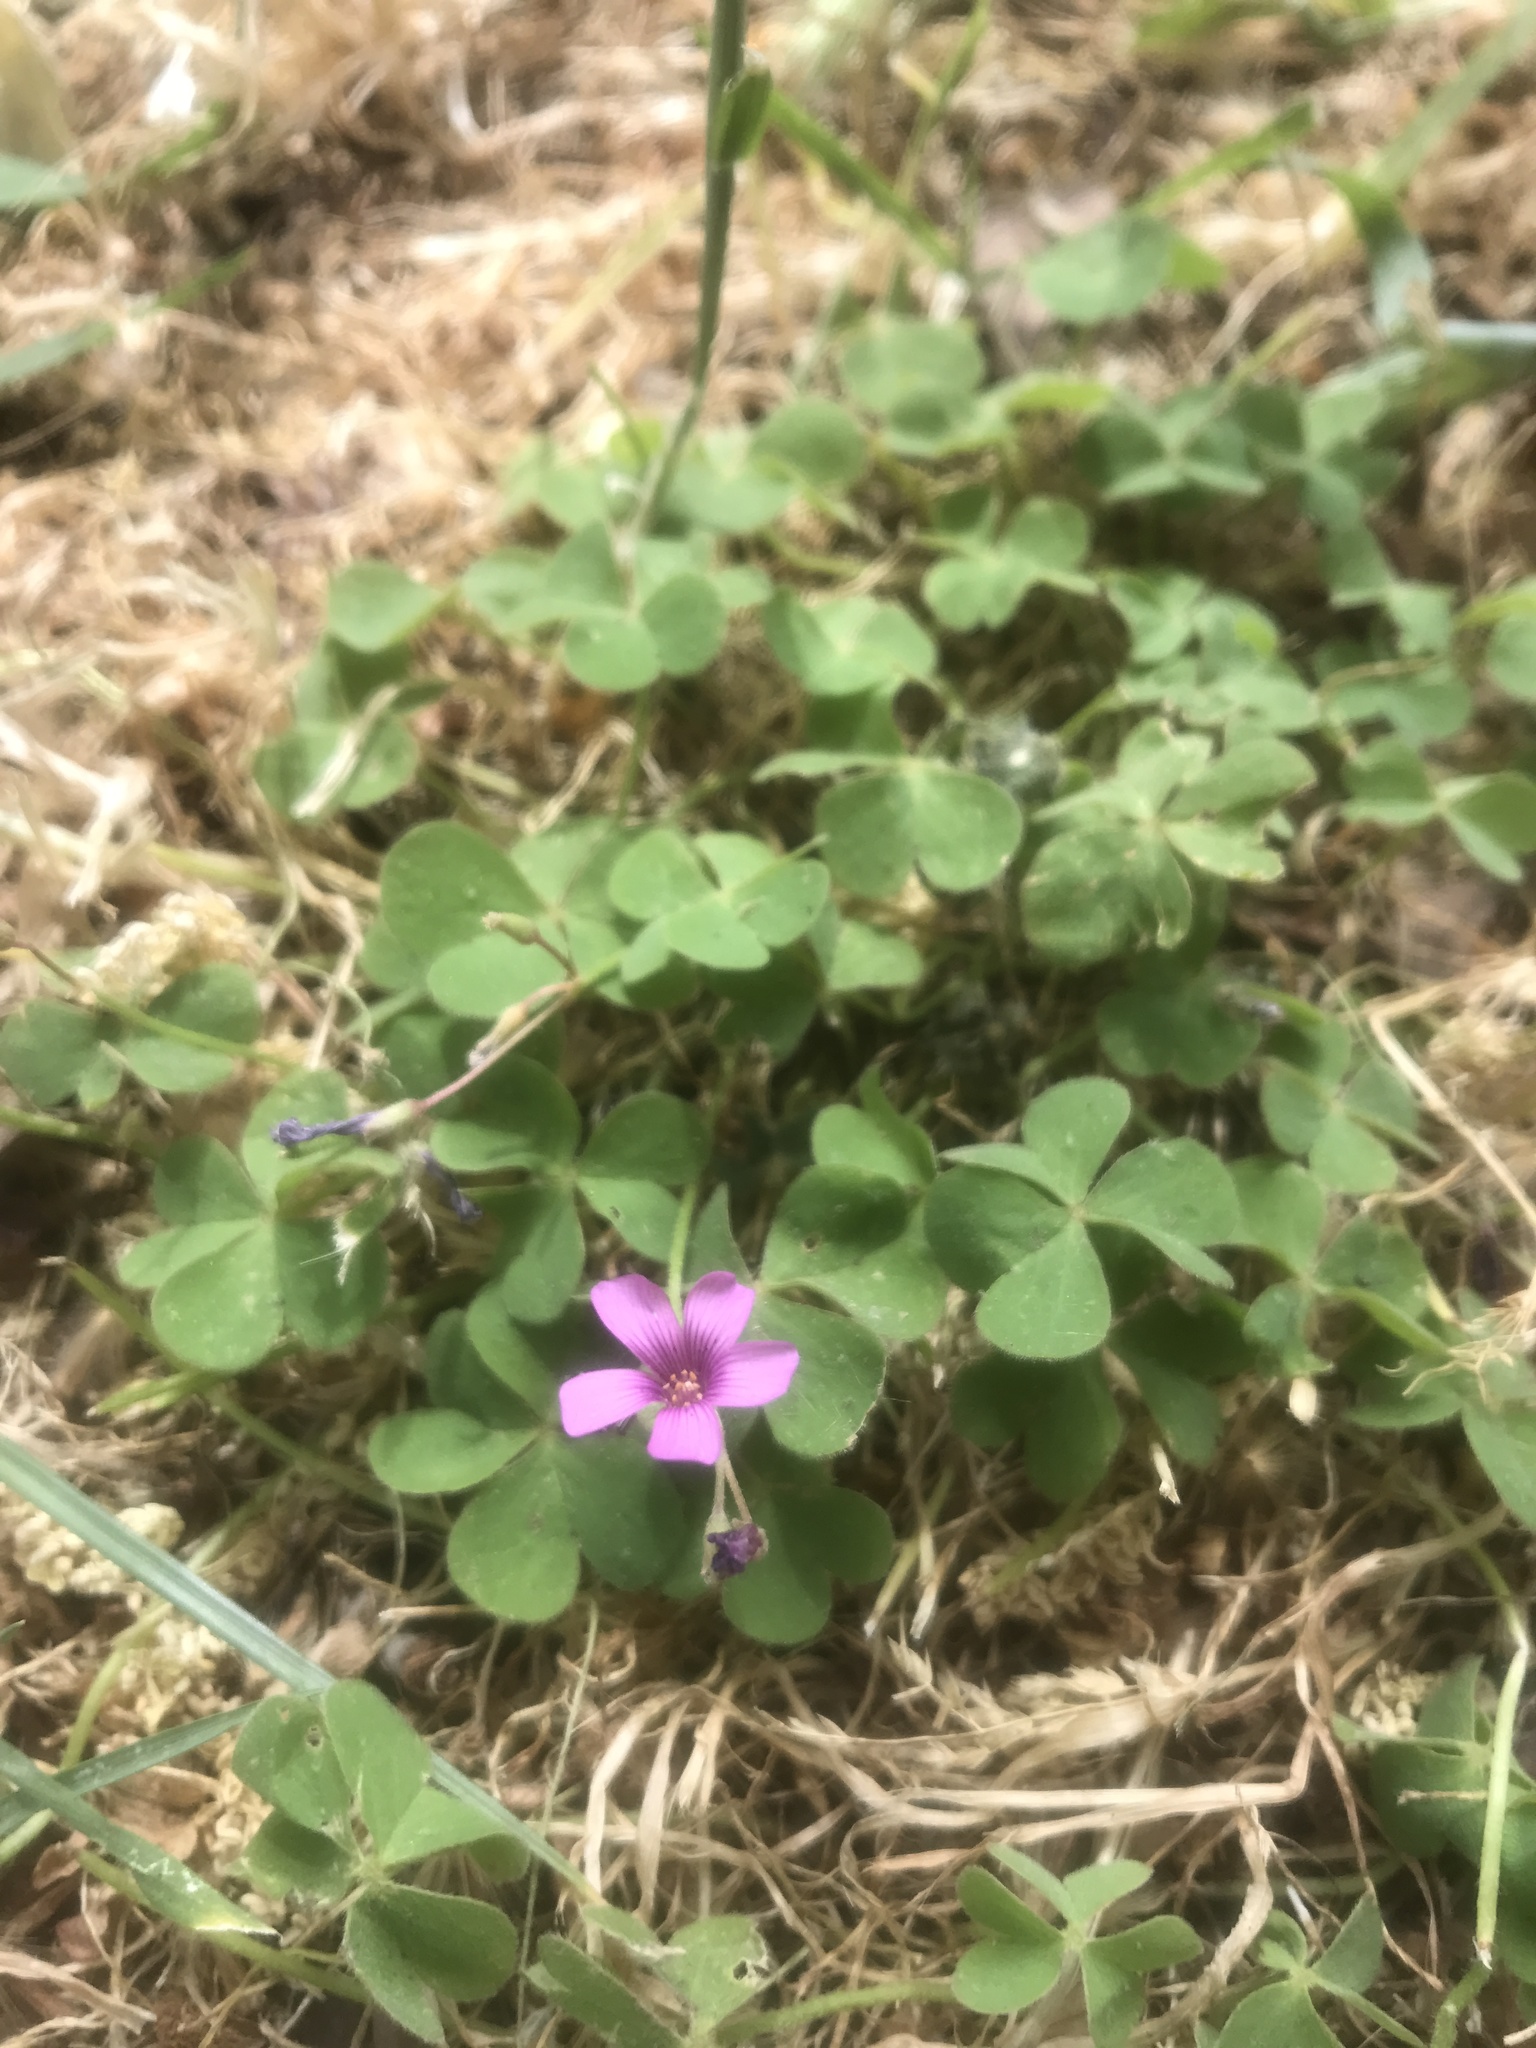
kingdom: Plantae
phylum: Tracheophyta
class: Magnoliopsida
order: Oxalidales
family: Oxalidaceae
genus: Oxalis
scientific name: Oxalis articulata
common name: Pink-sorrel
